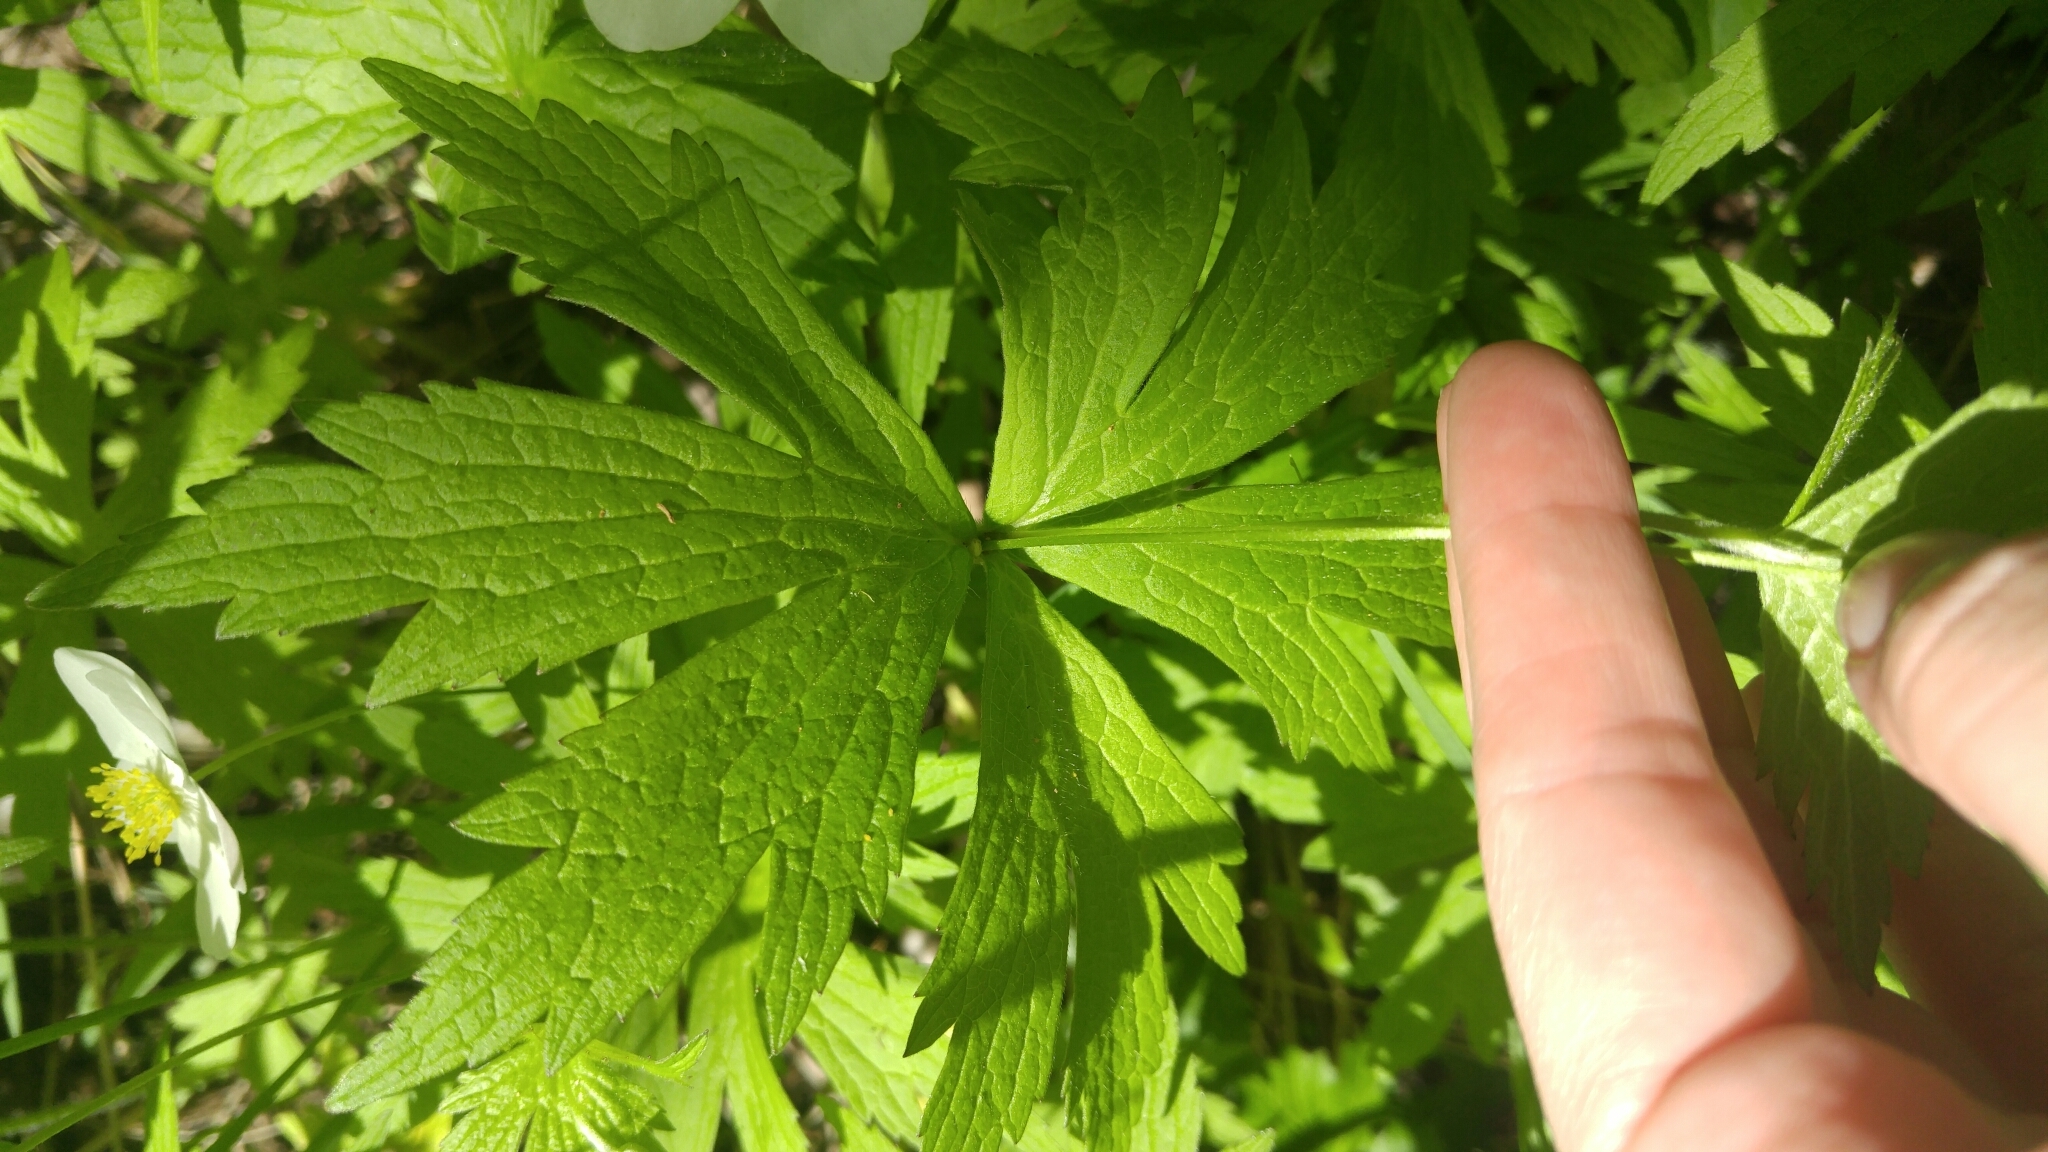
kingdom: Plantae
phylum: Tracheophyta
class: Magnoliopsida
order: Ranunculales
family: Ranunculaceae
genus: Anemonastrum
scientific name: Anemonastrum canadense
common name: Canada anemone
